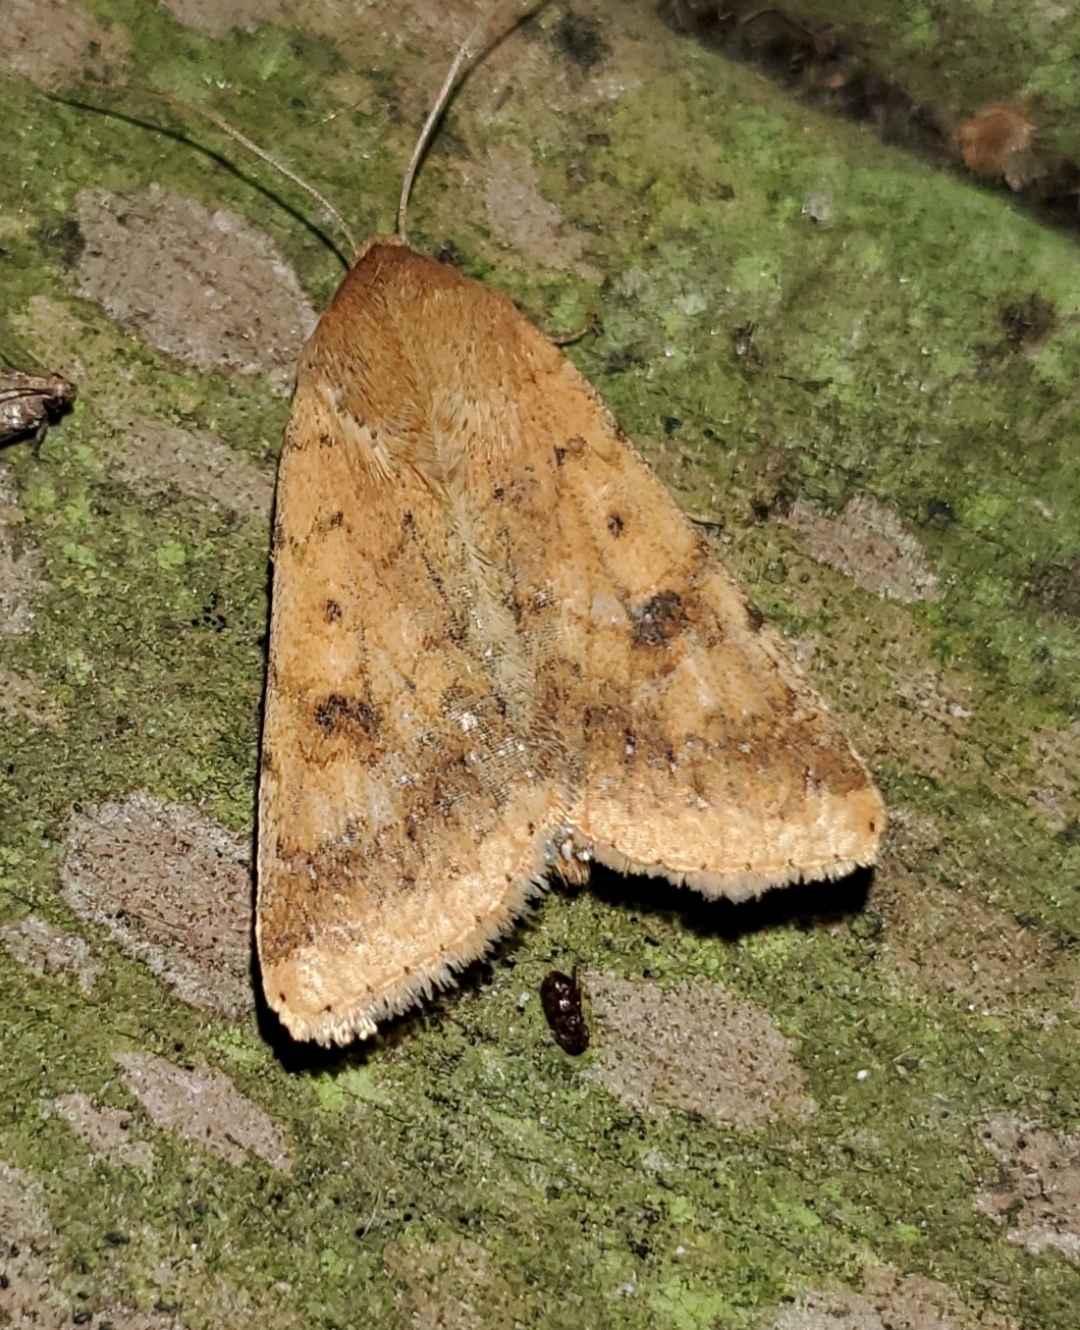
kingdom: Animalia
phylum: Arthropoda
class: Insecta
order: Lepidoptera
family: Noctuidae
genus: Helicoverpa
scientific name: Helicoverpa zea
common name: Bollworm
